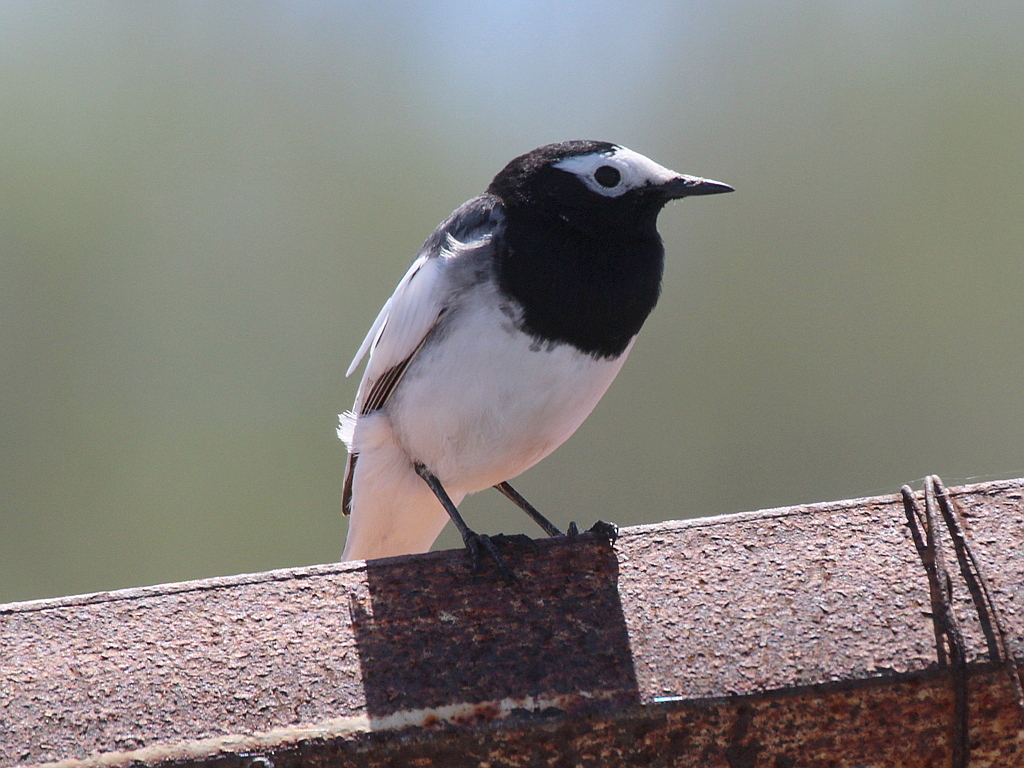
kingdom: Animalia
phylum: Chordata
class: Aves
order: Passeriformes
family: Motacillidae
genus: Motacilla
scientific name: Motacilla alba
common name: White wagtail
